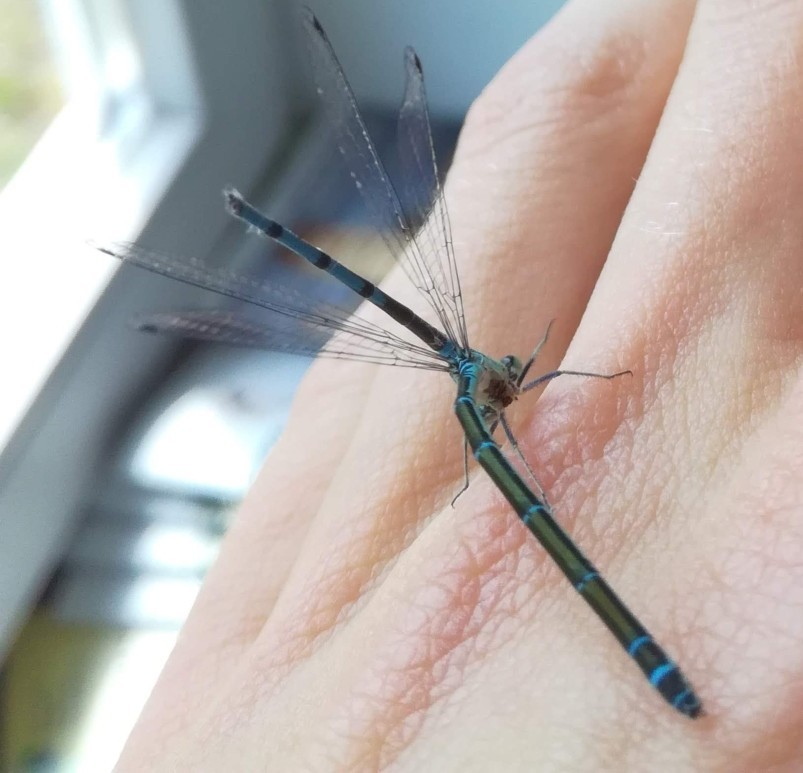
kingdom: Animalia
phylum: Arthropoda
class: Insecta
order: Odonata
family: Coenagrionidae
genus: Coenagrion
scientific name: Coenagrion puella
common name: Azure damselfly
